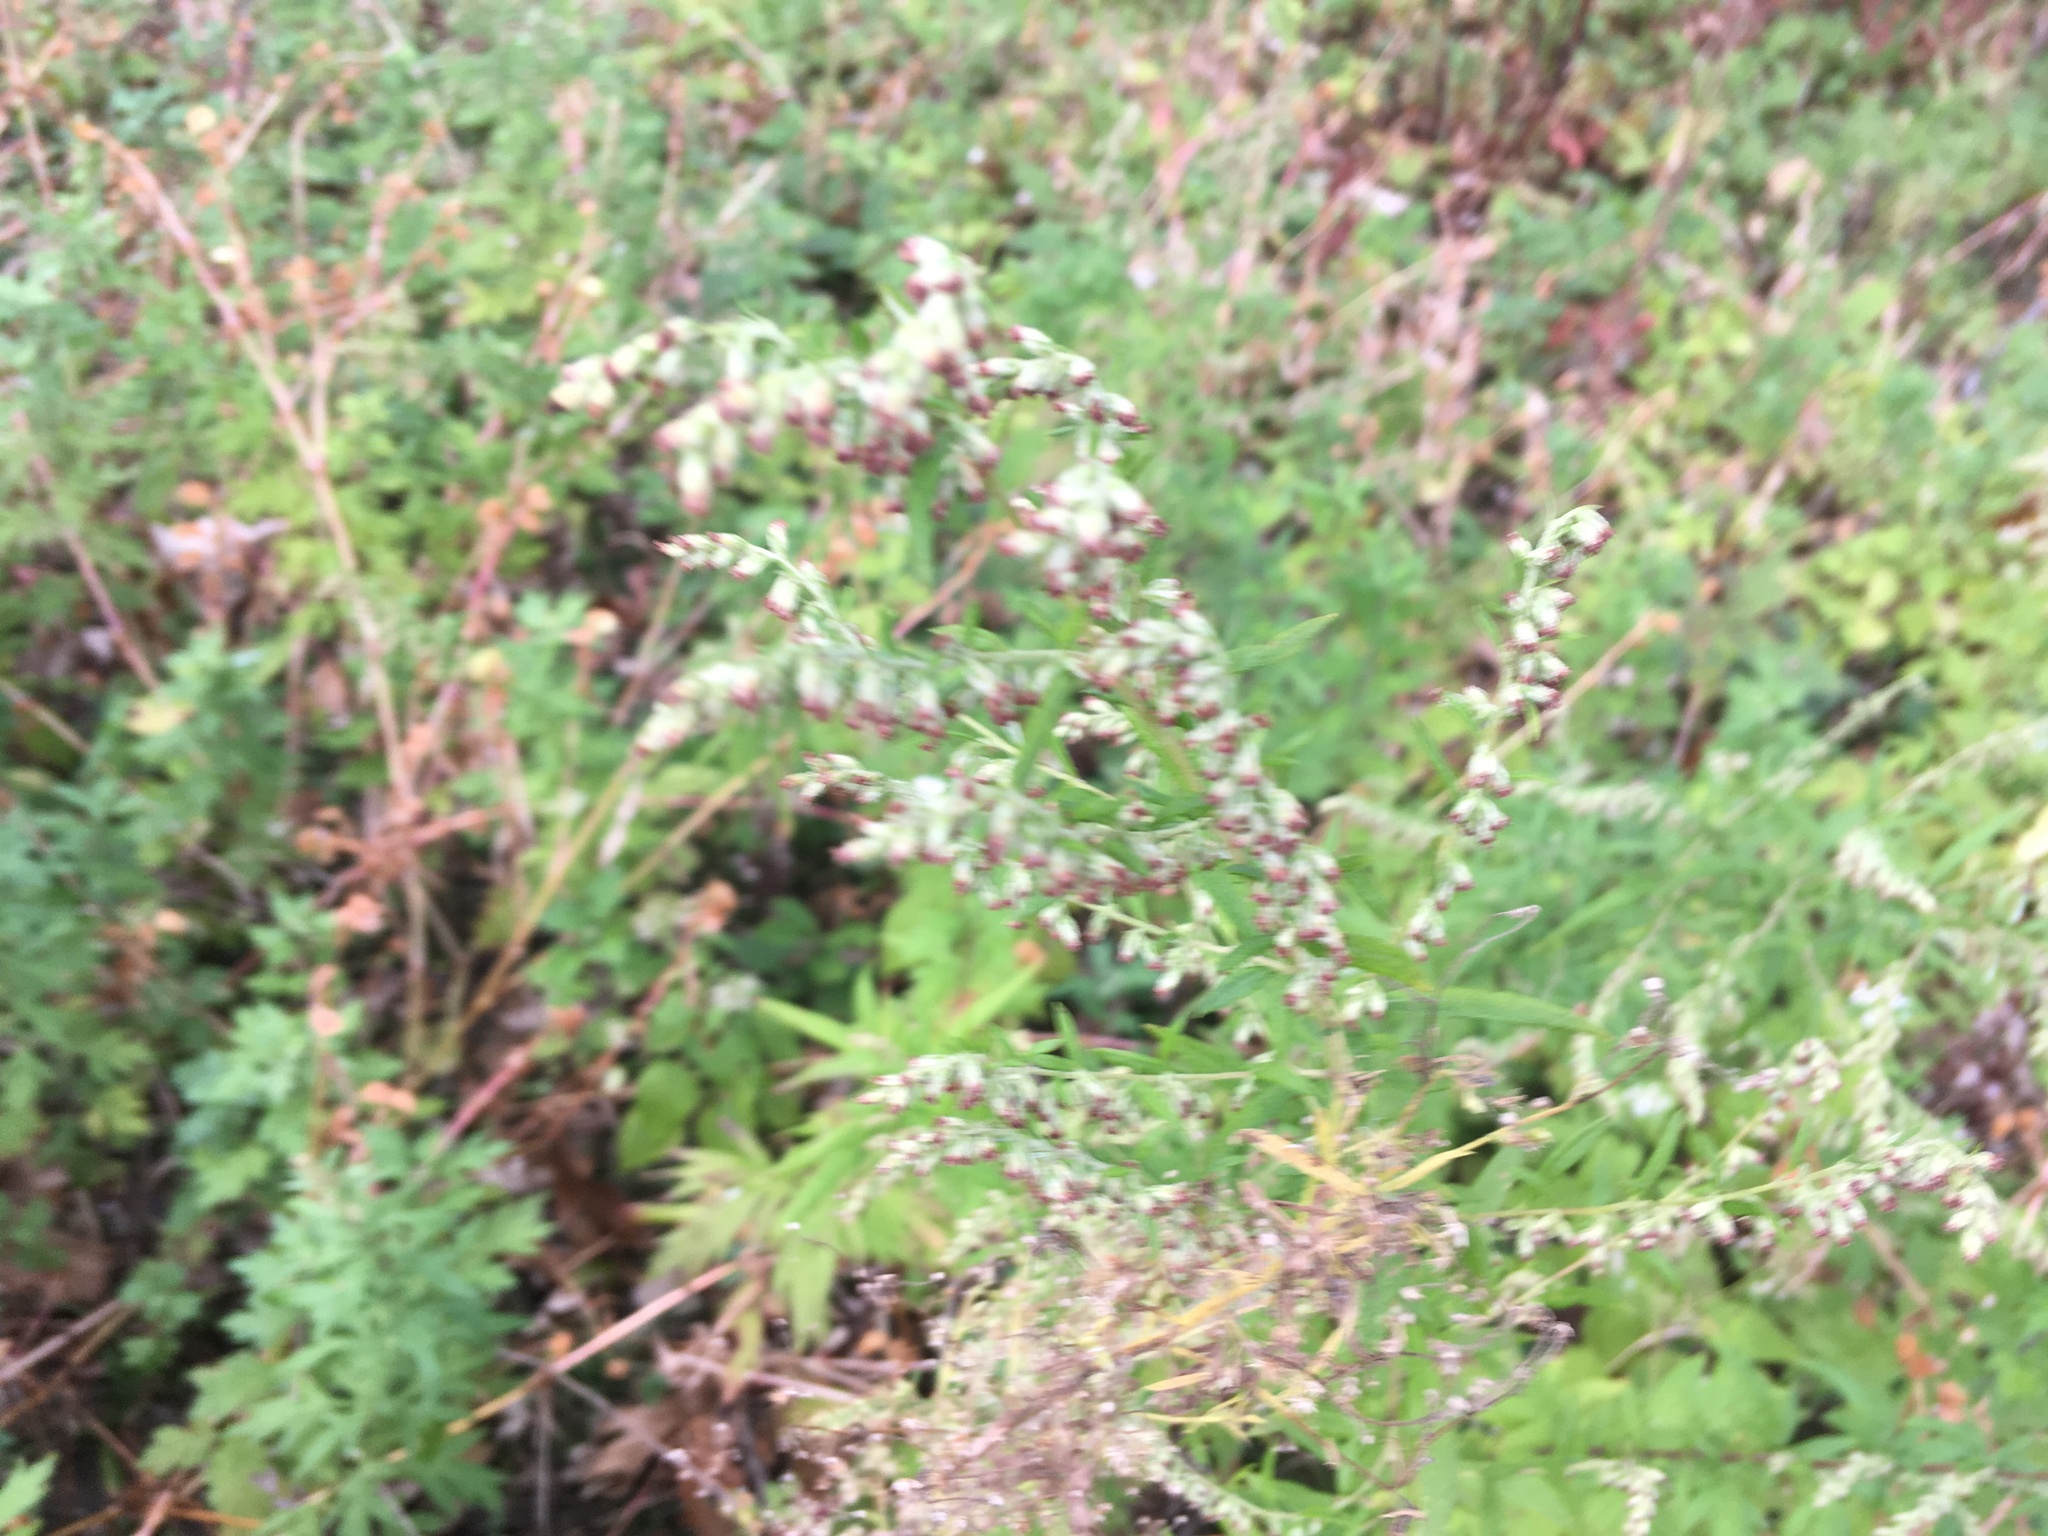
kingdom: Plantae
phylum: Tracheophyta
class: Magnoliopsida
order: Asterales
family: Asteraceae
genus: Artemisia
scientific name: Artemisia vulgaris
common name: Mugwort
